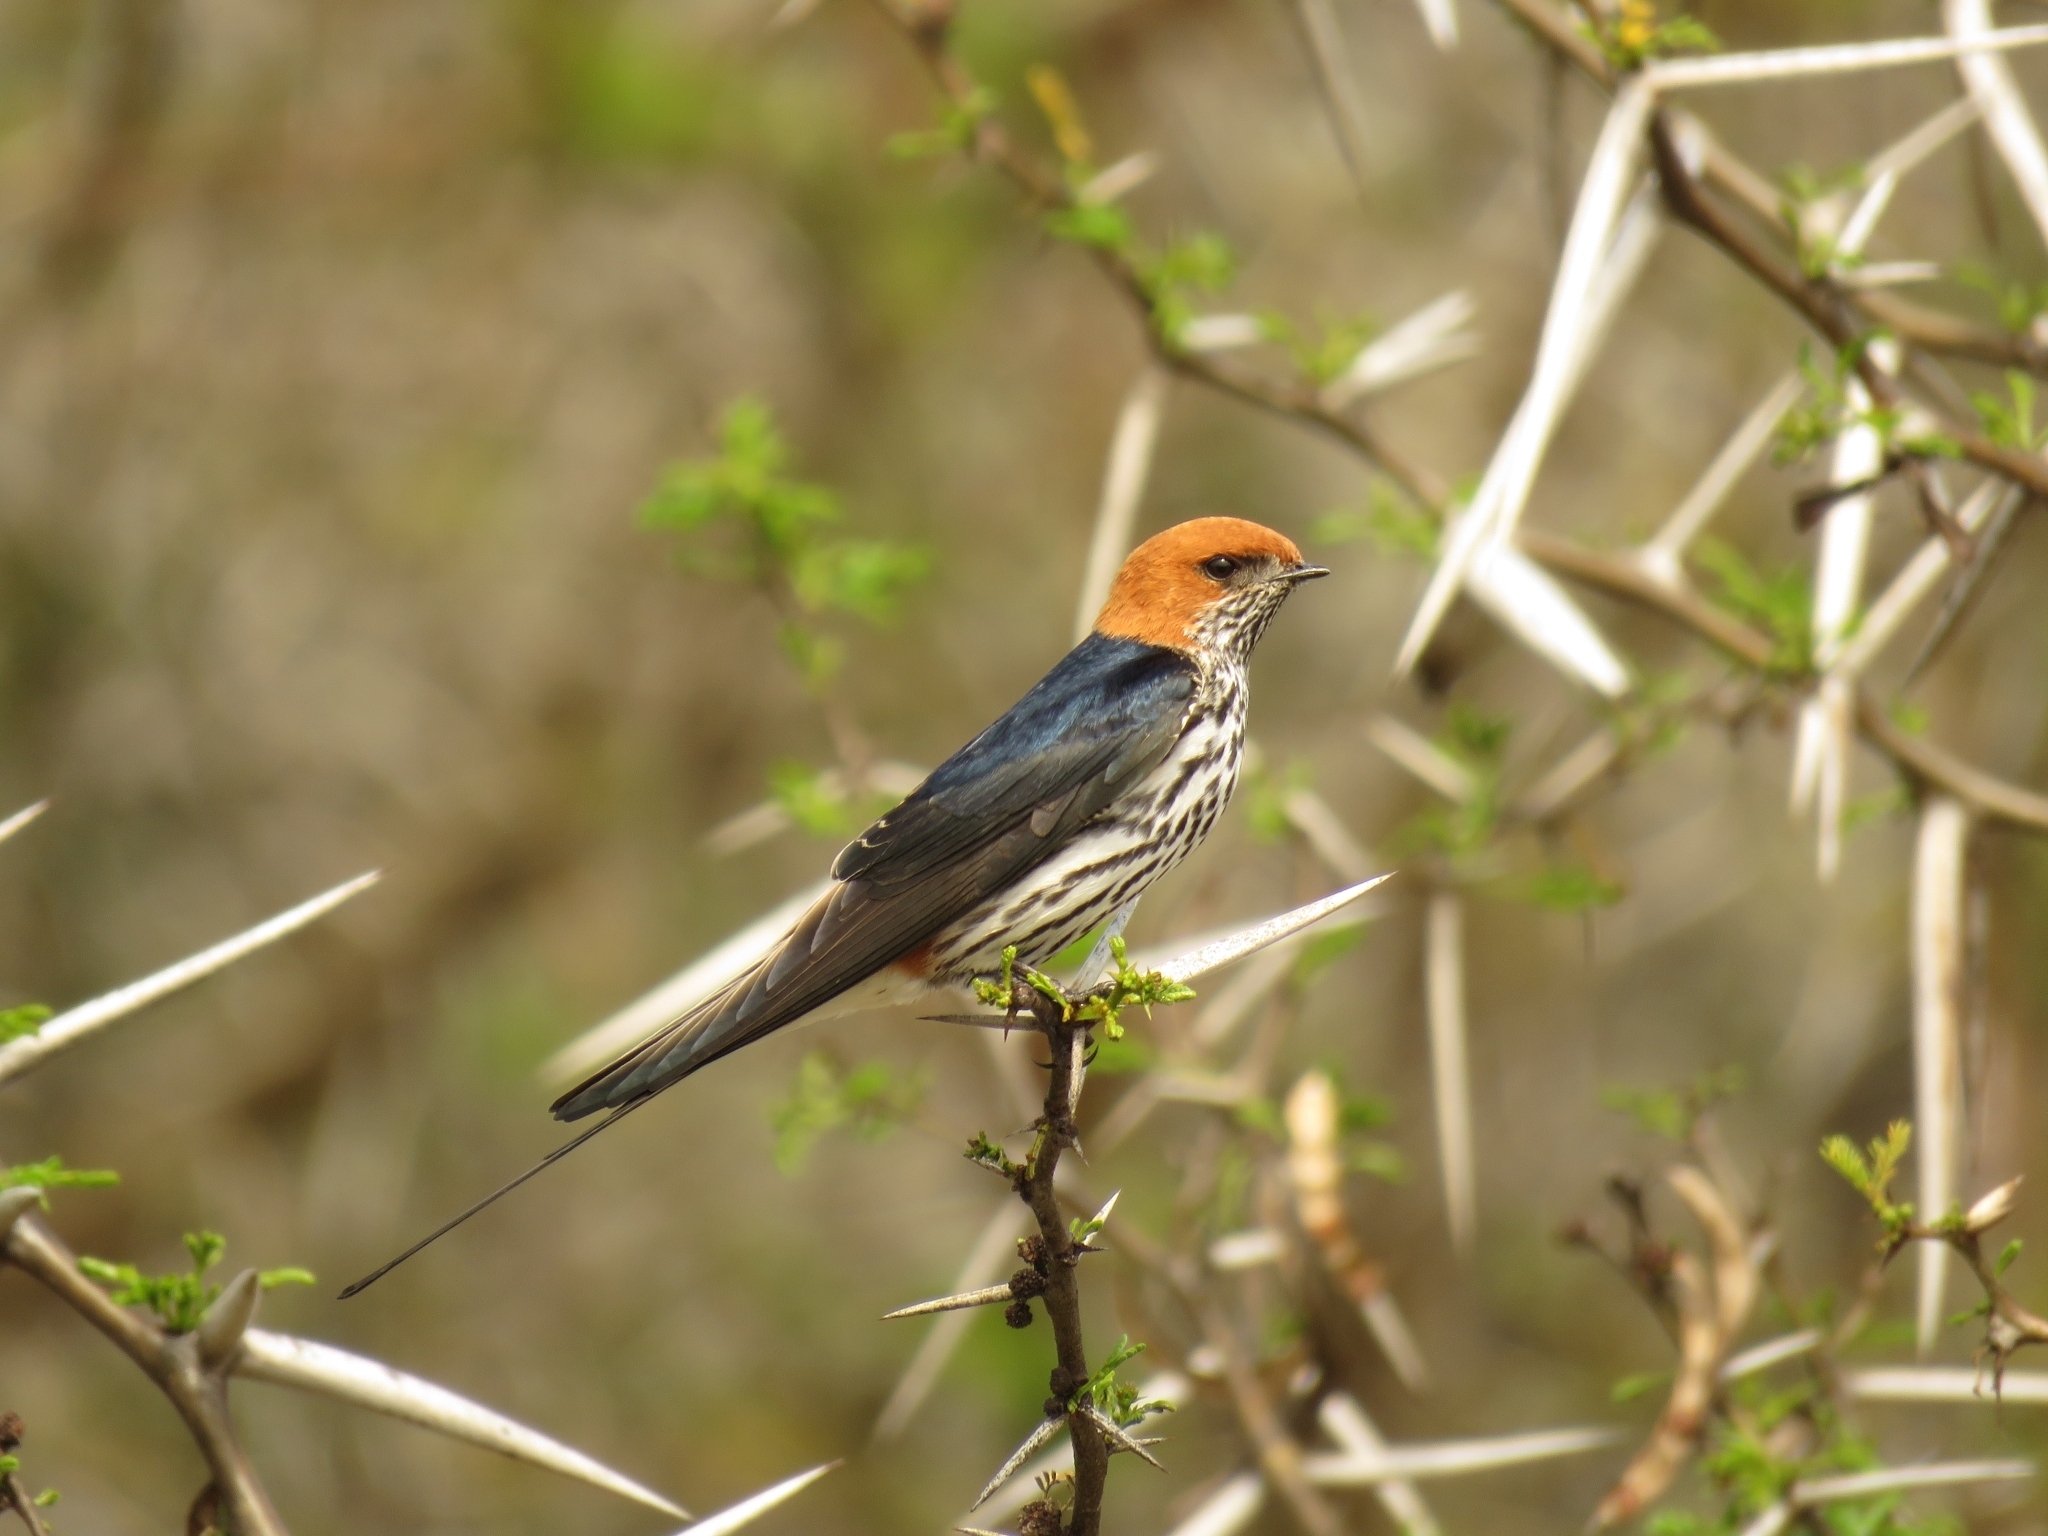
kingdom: Animalia
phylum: Chordata
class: Aves
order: Passeriformes
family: Hirundinidae
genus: Cecropis
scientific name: Cecropis abyssinica
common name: Lesser striped-swallow
